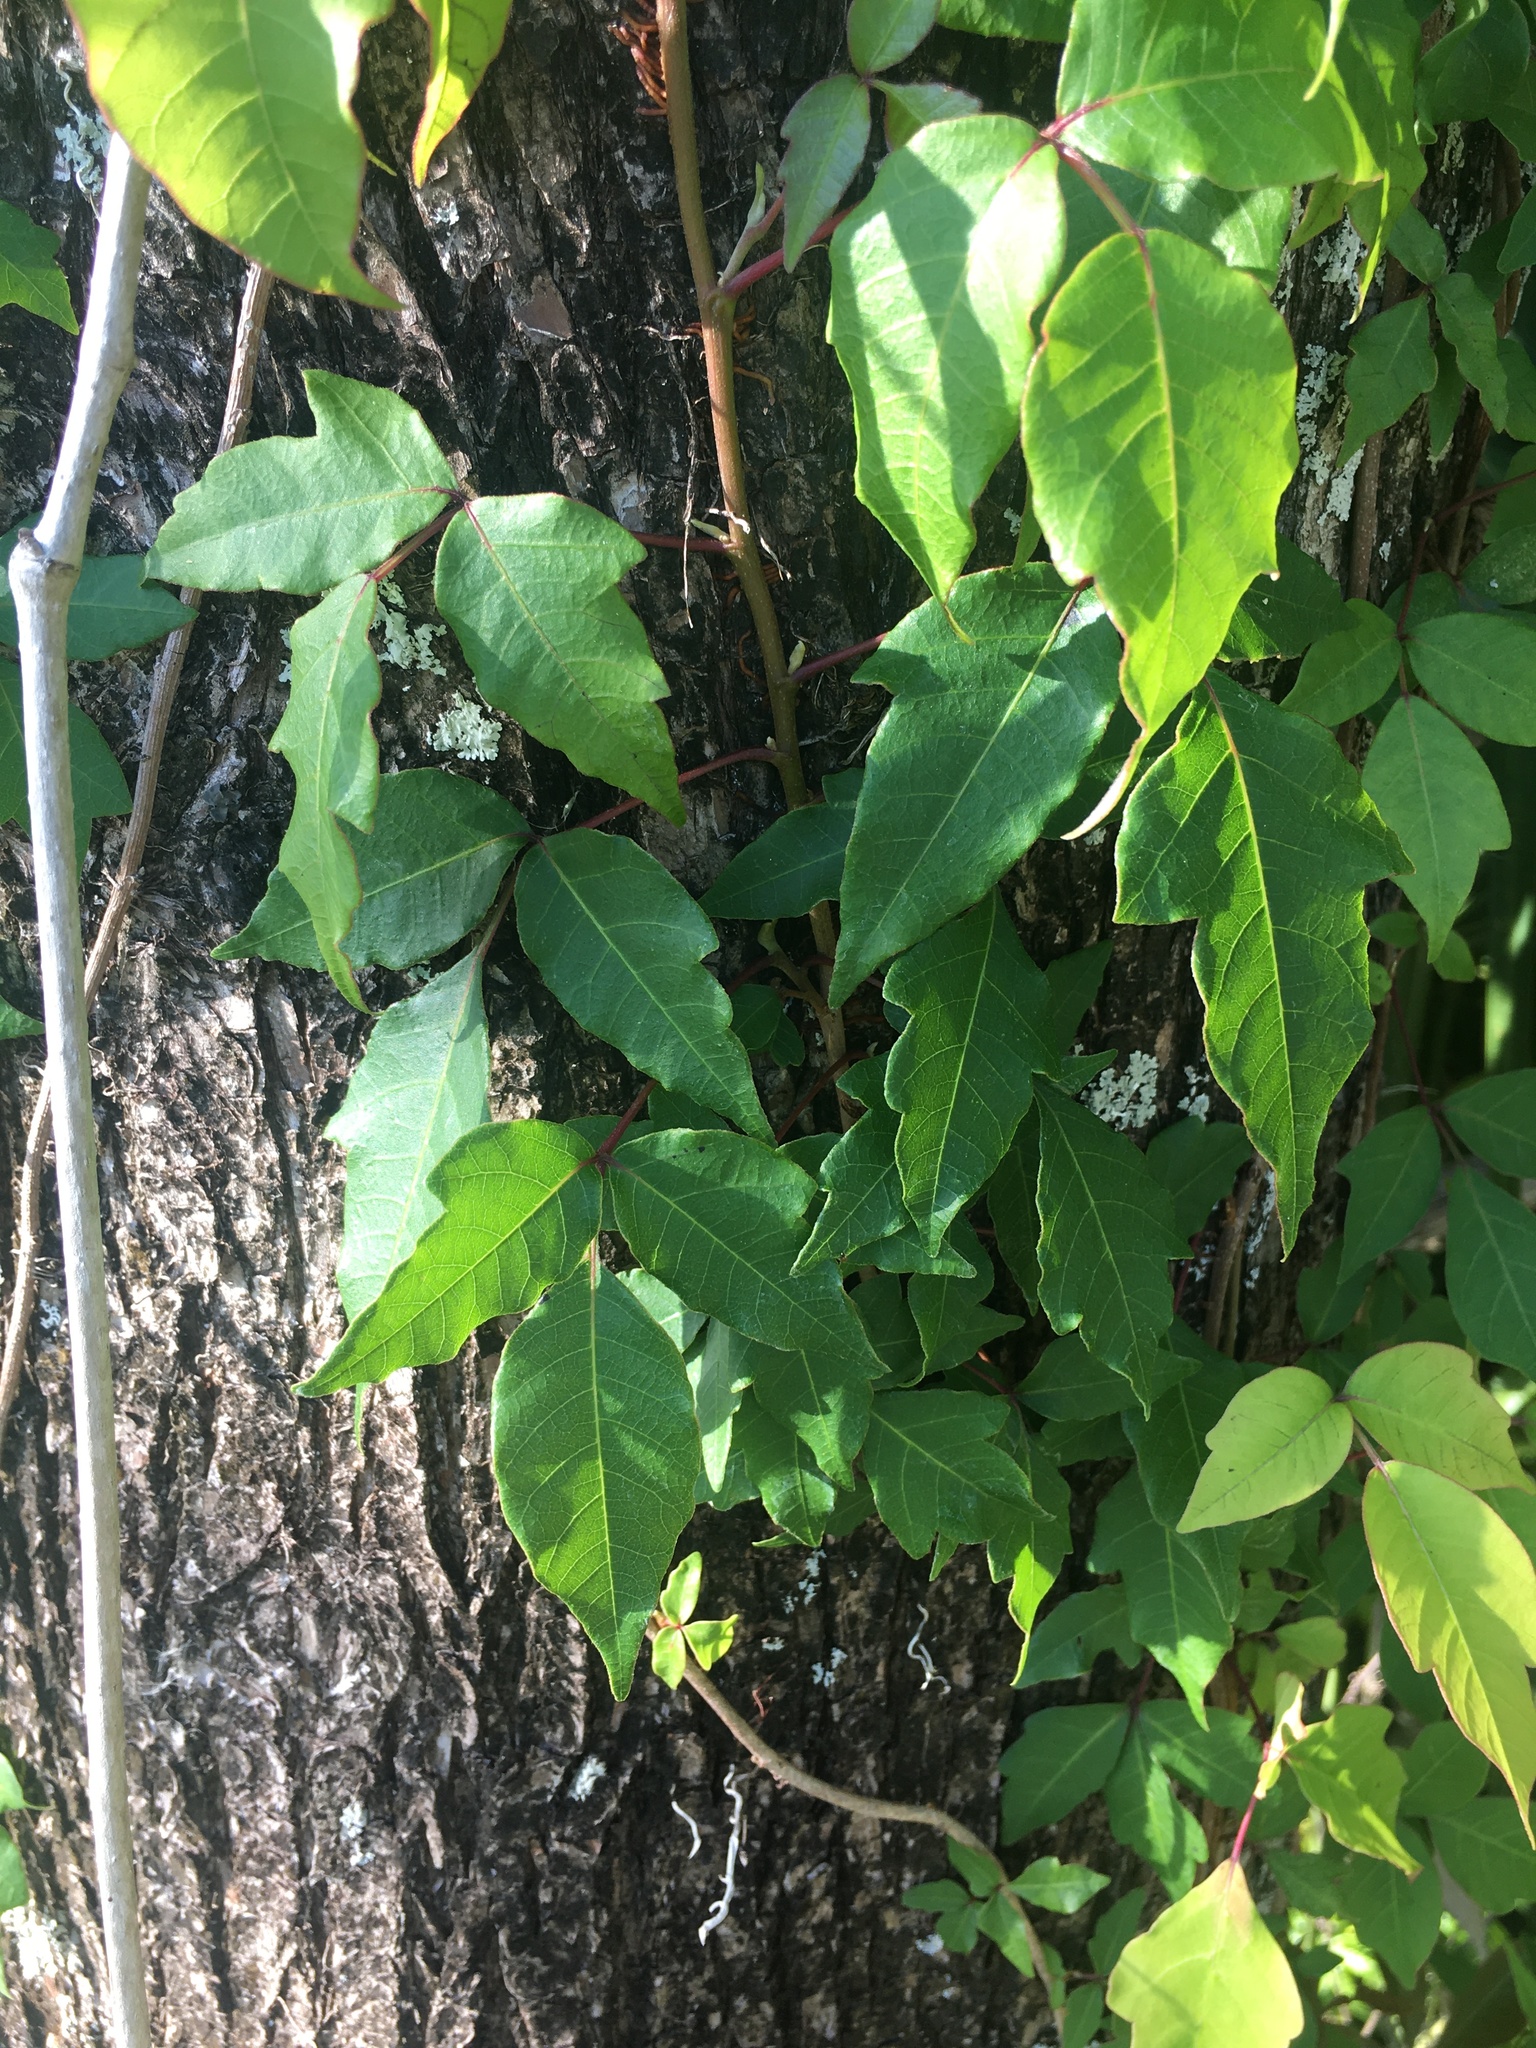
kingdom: Plantae
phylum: Tracheophyta
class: Magnoliopsida
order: Sapindales
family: Anacardiaceae
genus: Toxicodendron
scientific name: Toxicodendron radicans
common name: Poison ivy
